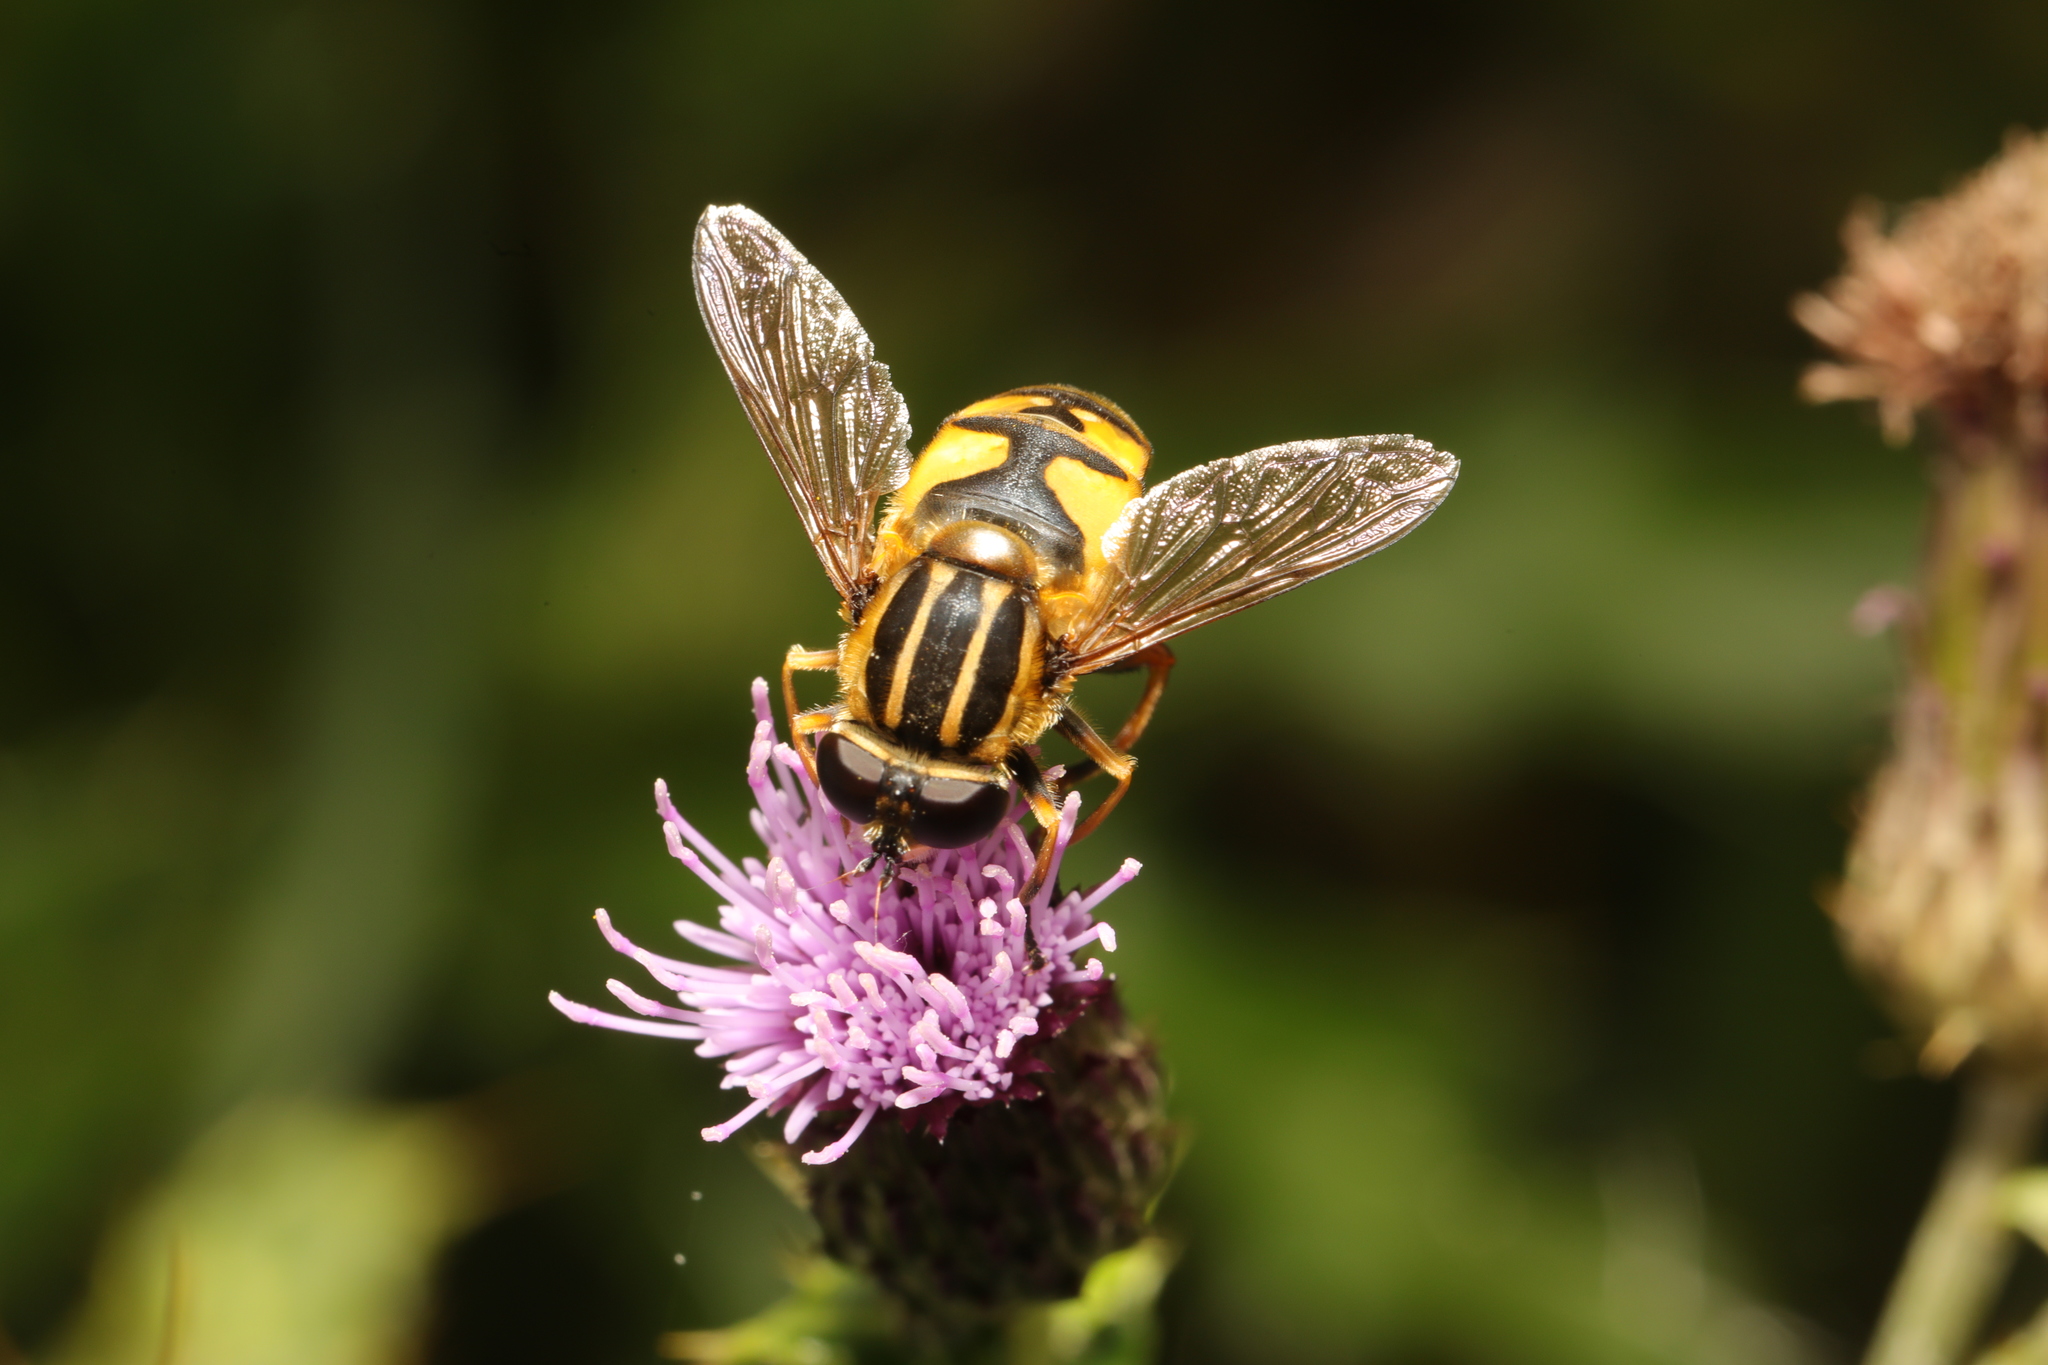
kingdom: Animalia
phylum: Arthropoda
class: Insecta
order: Diptera
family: Syrphidae
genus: Helophilus
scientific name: Helophilus pendulus
